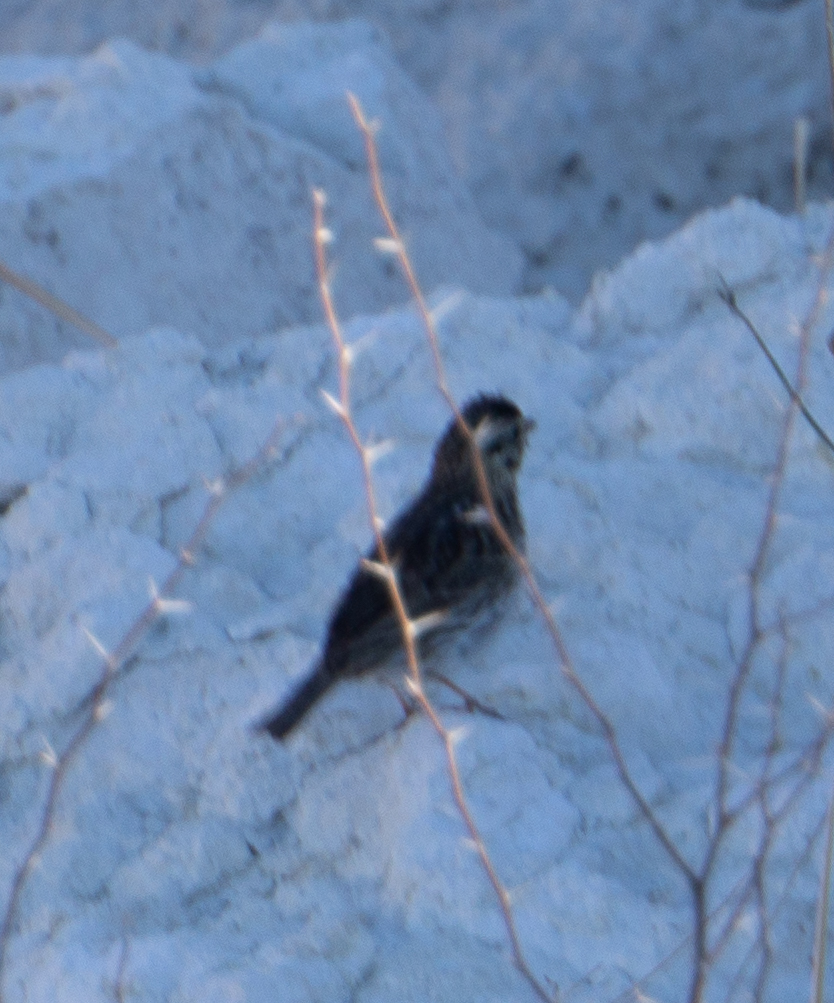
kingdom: Animalia
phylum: Chordata
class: Aves
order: Passeriformes
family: Passerellidae
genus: Passerculus
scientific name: Passerculus sandwichensis
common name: Savannah sparrow
